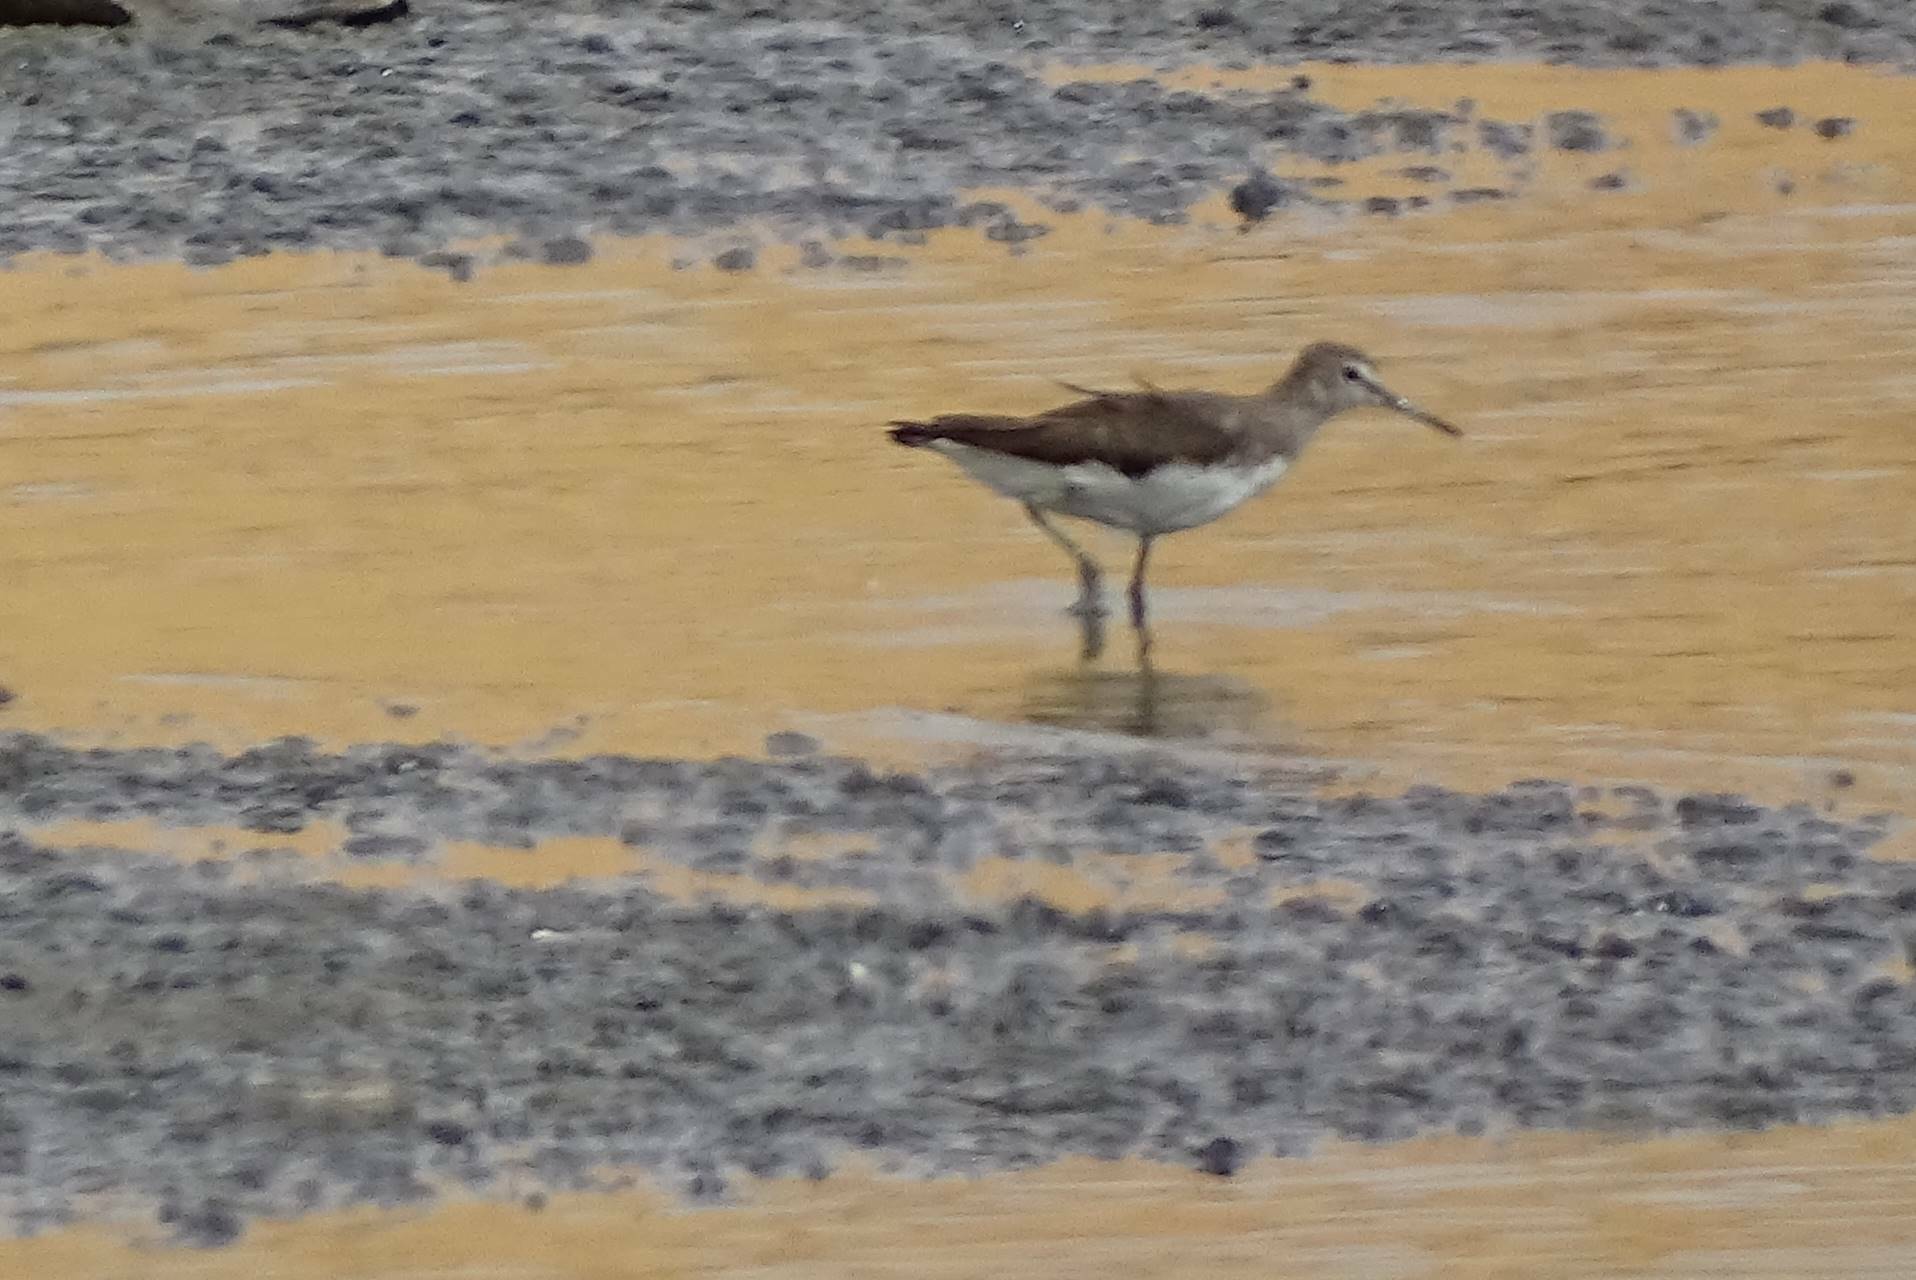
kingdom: Animalia
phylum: Chordata
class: Aves
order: Charadriiformes
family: Scolopacidae
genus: Tringa
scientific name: Tringa ochropus
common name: Green sandpiper
